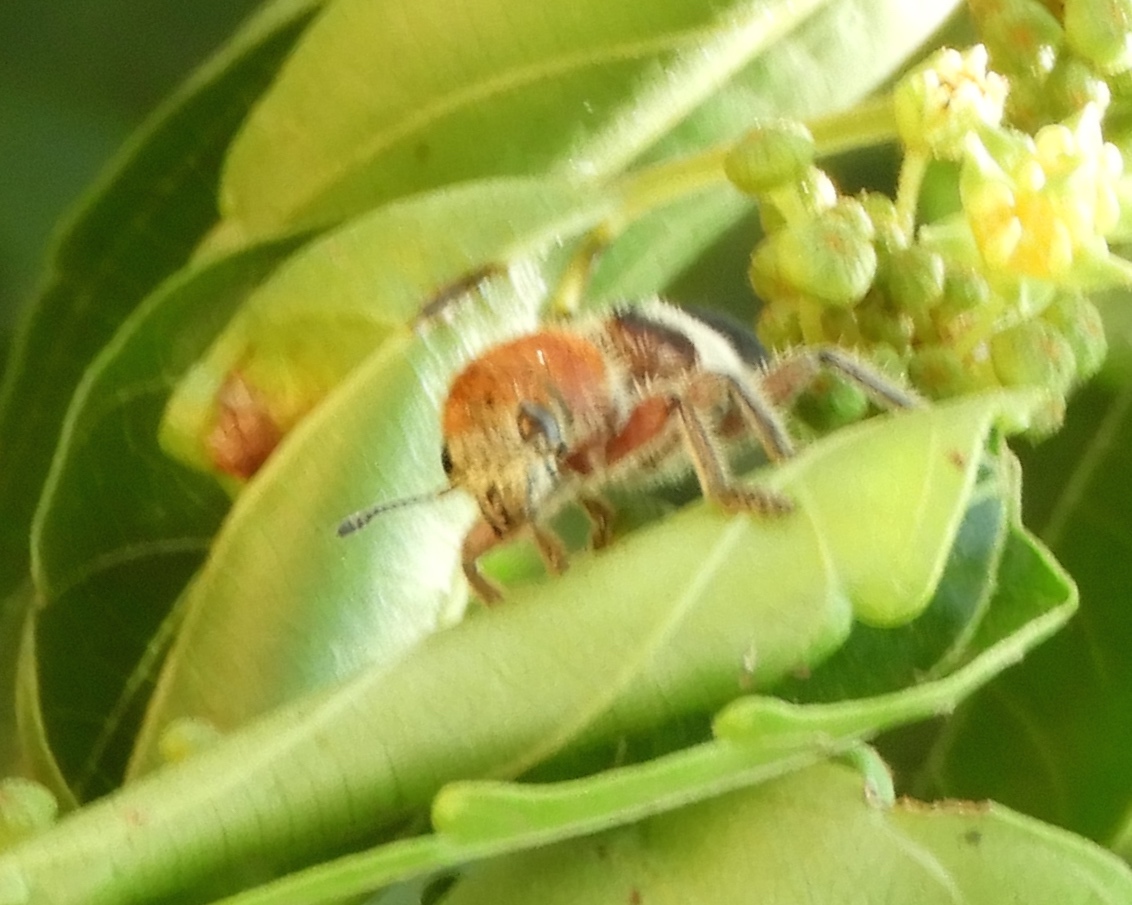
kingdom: Animalia
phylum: Arthropoda
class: Insecta
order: Coleoptera
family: Cleridae
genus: Enoclerus
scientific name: Enoclerus quadriguttatus
